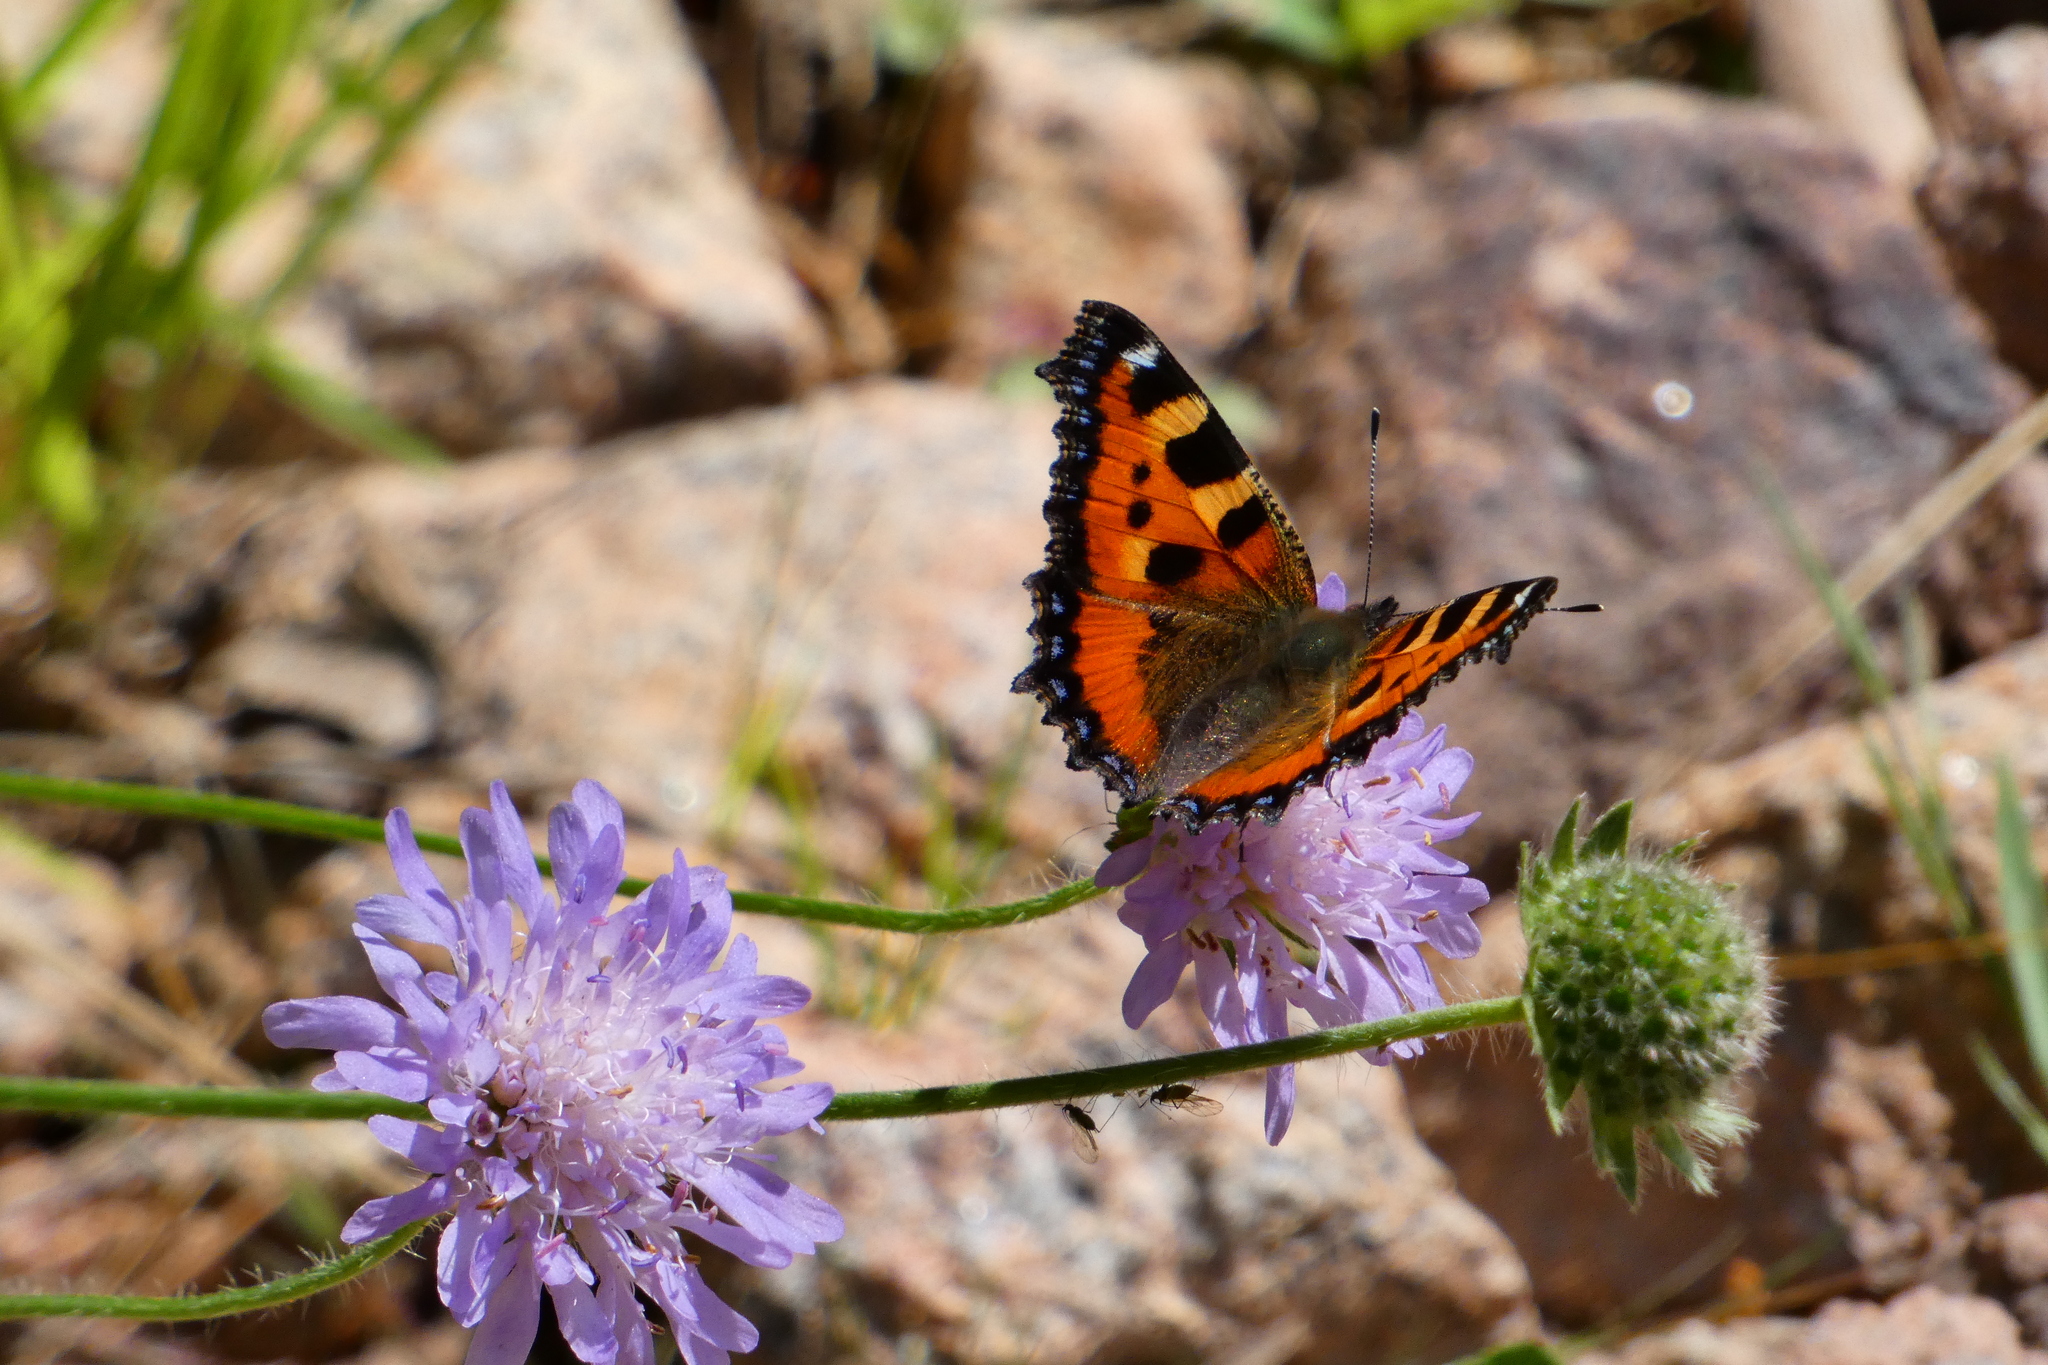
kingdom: Animalia
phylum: Arthropoda
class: Insecta
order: Lepidoptera
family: Nymphalidae
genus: Aglais
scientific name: Aglais urticae
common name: Small tortoiseshell
